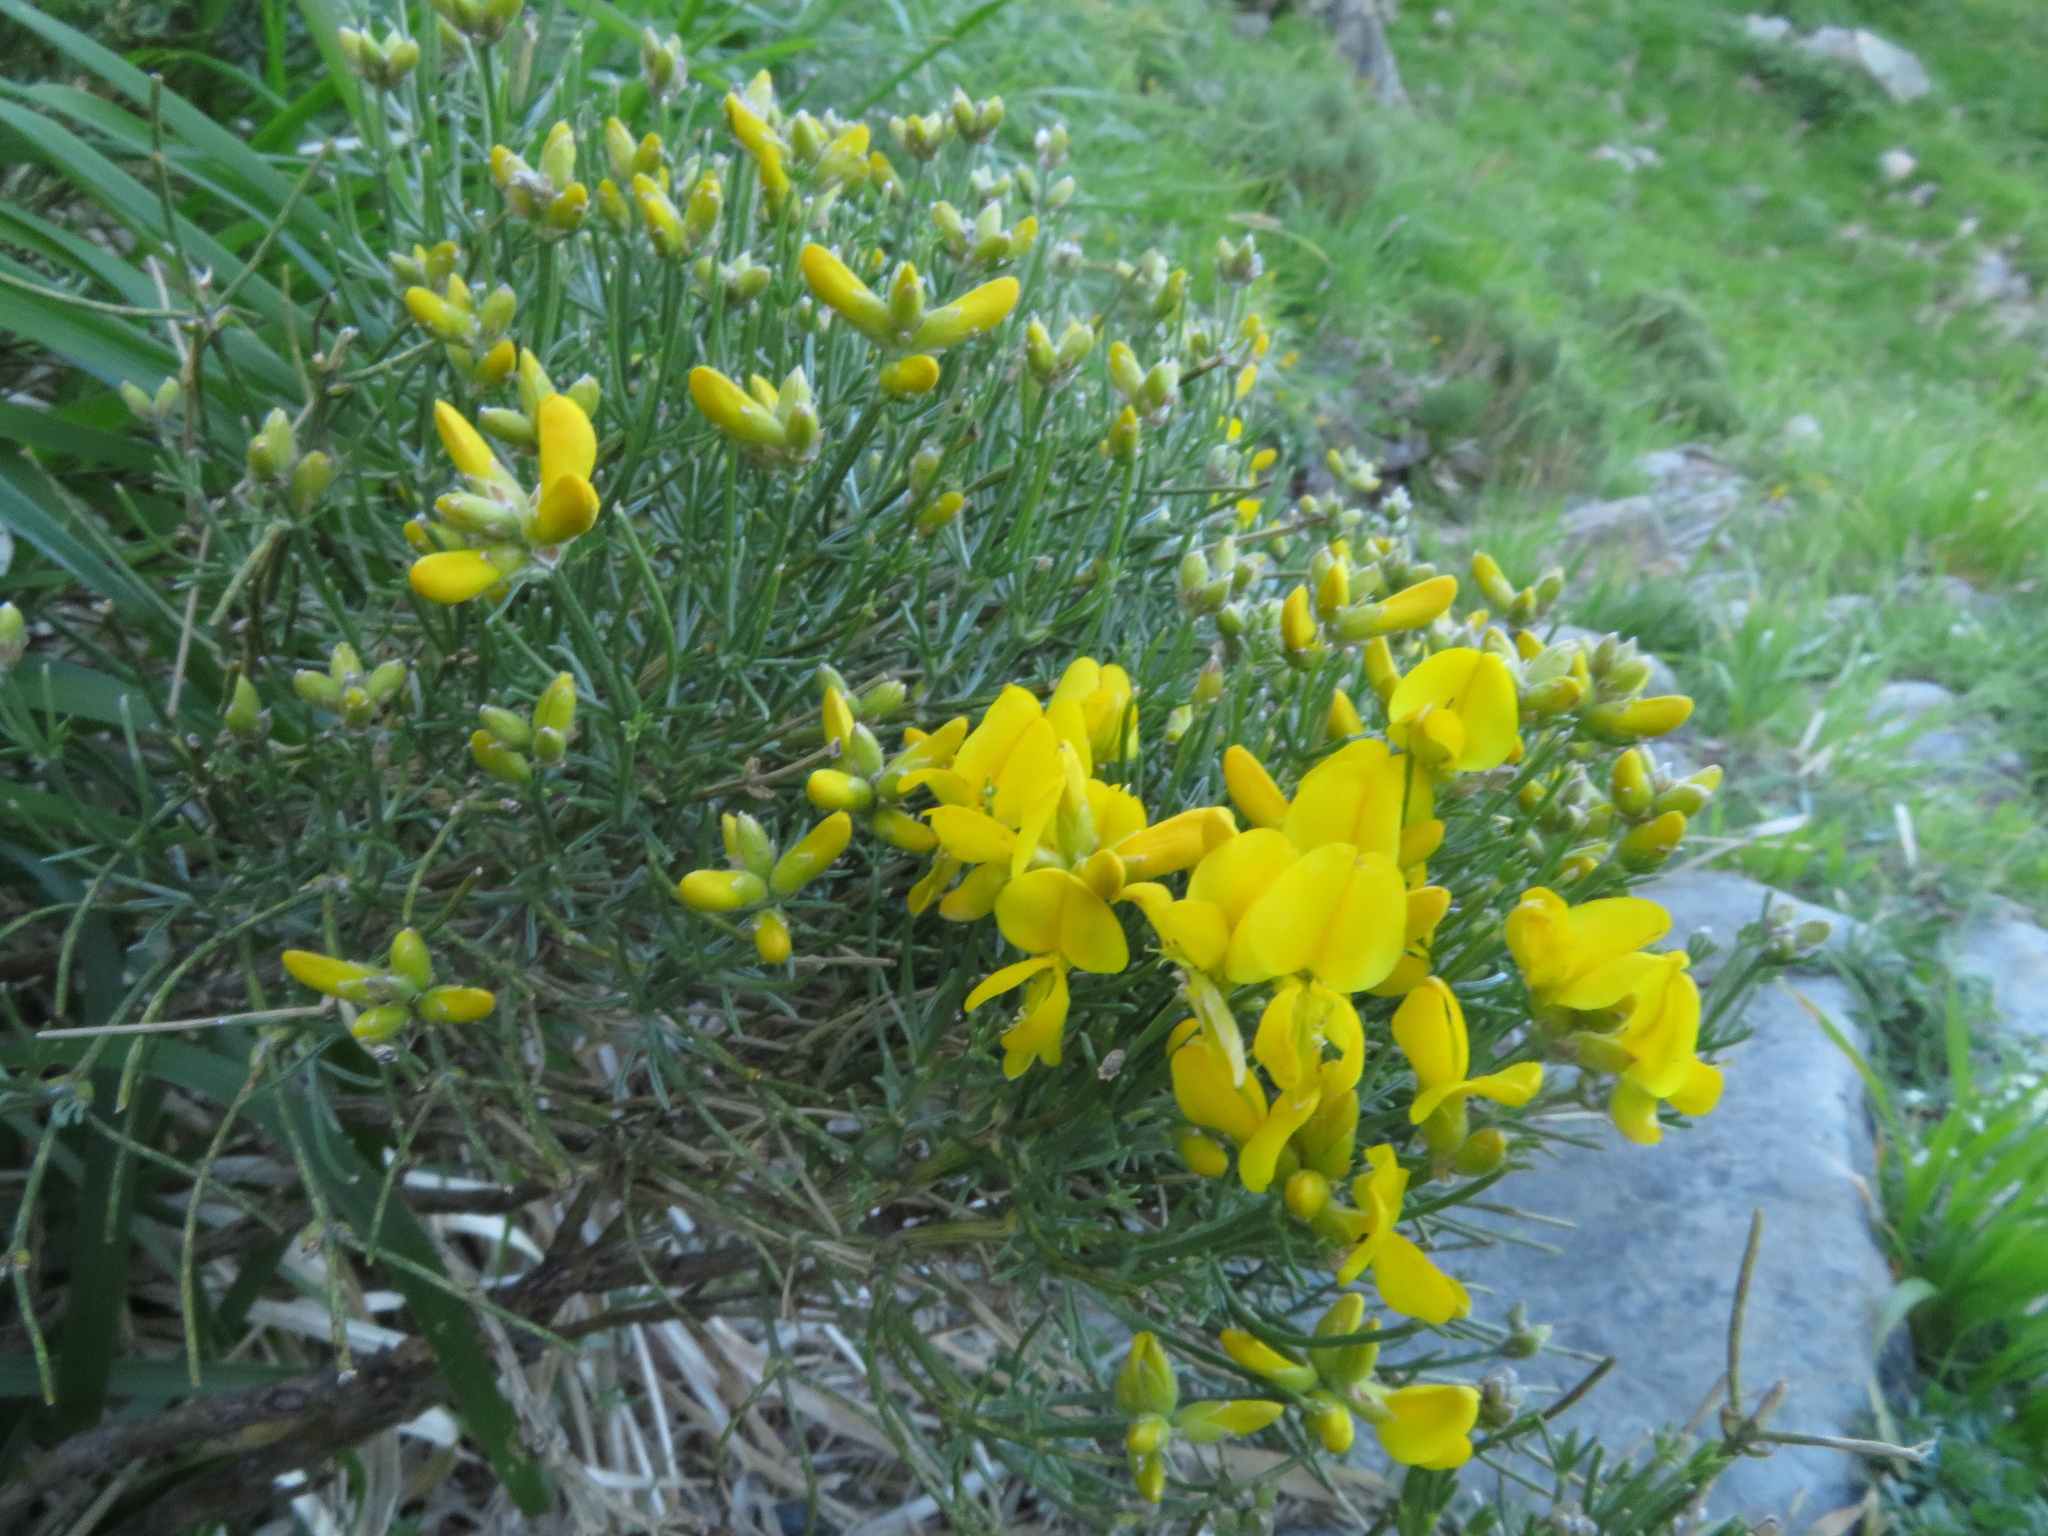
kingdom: Plantae
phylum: Tracheophyta
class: Magnoliopsida
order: Fabales
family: Fabaceae
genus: Genista
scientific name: Genista radiata
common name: Southern greenweed
